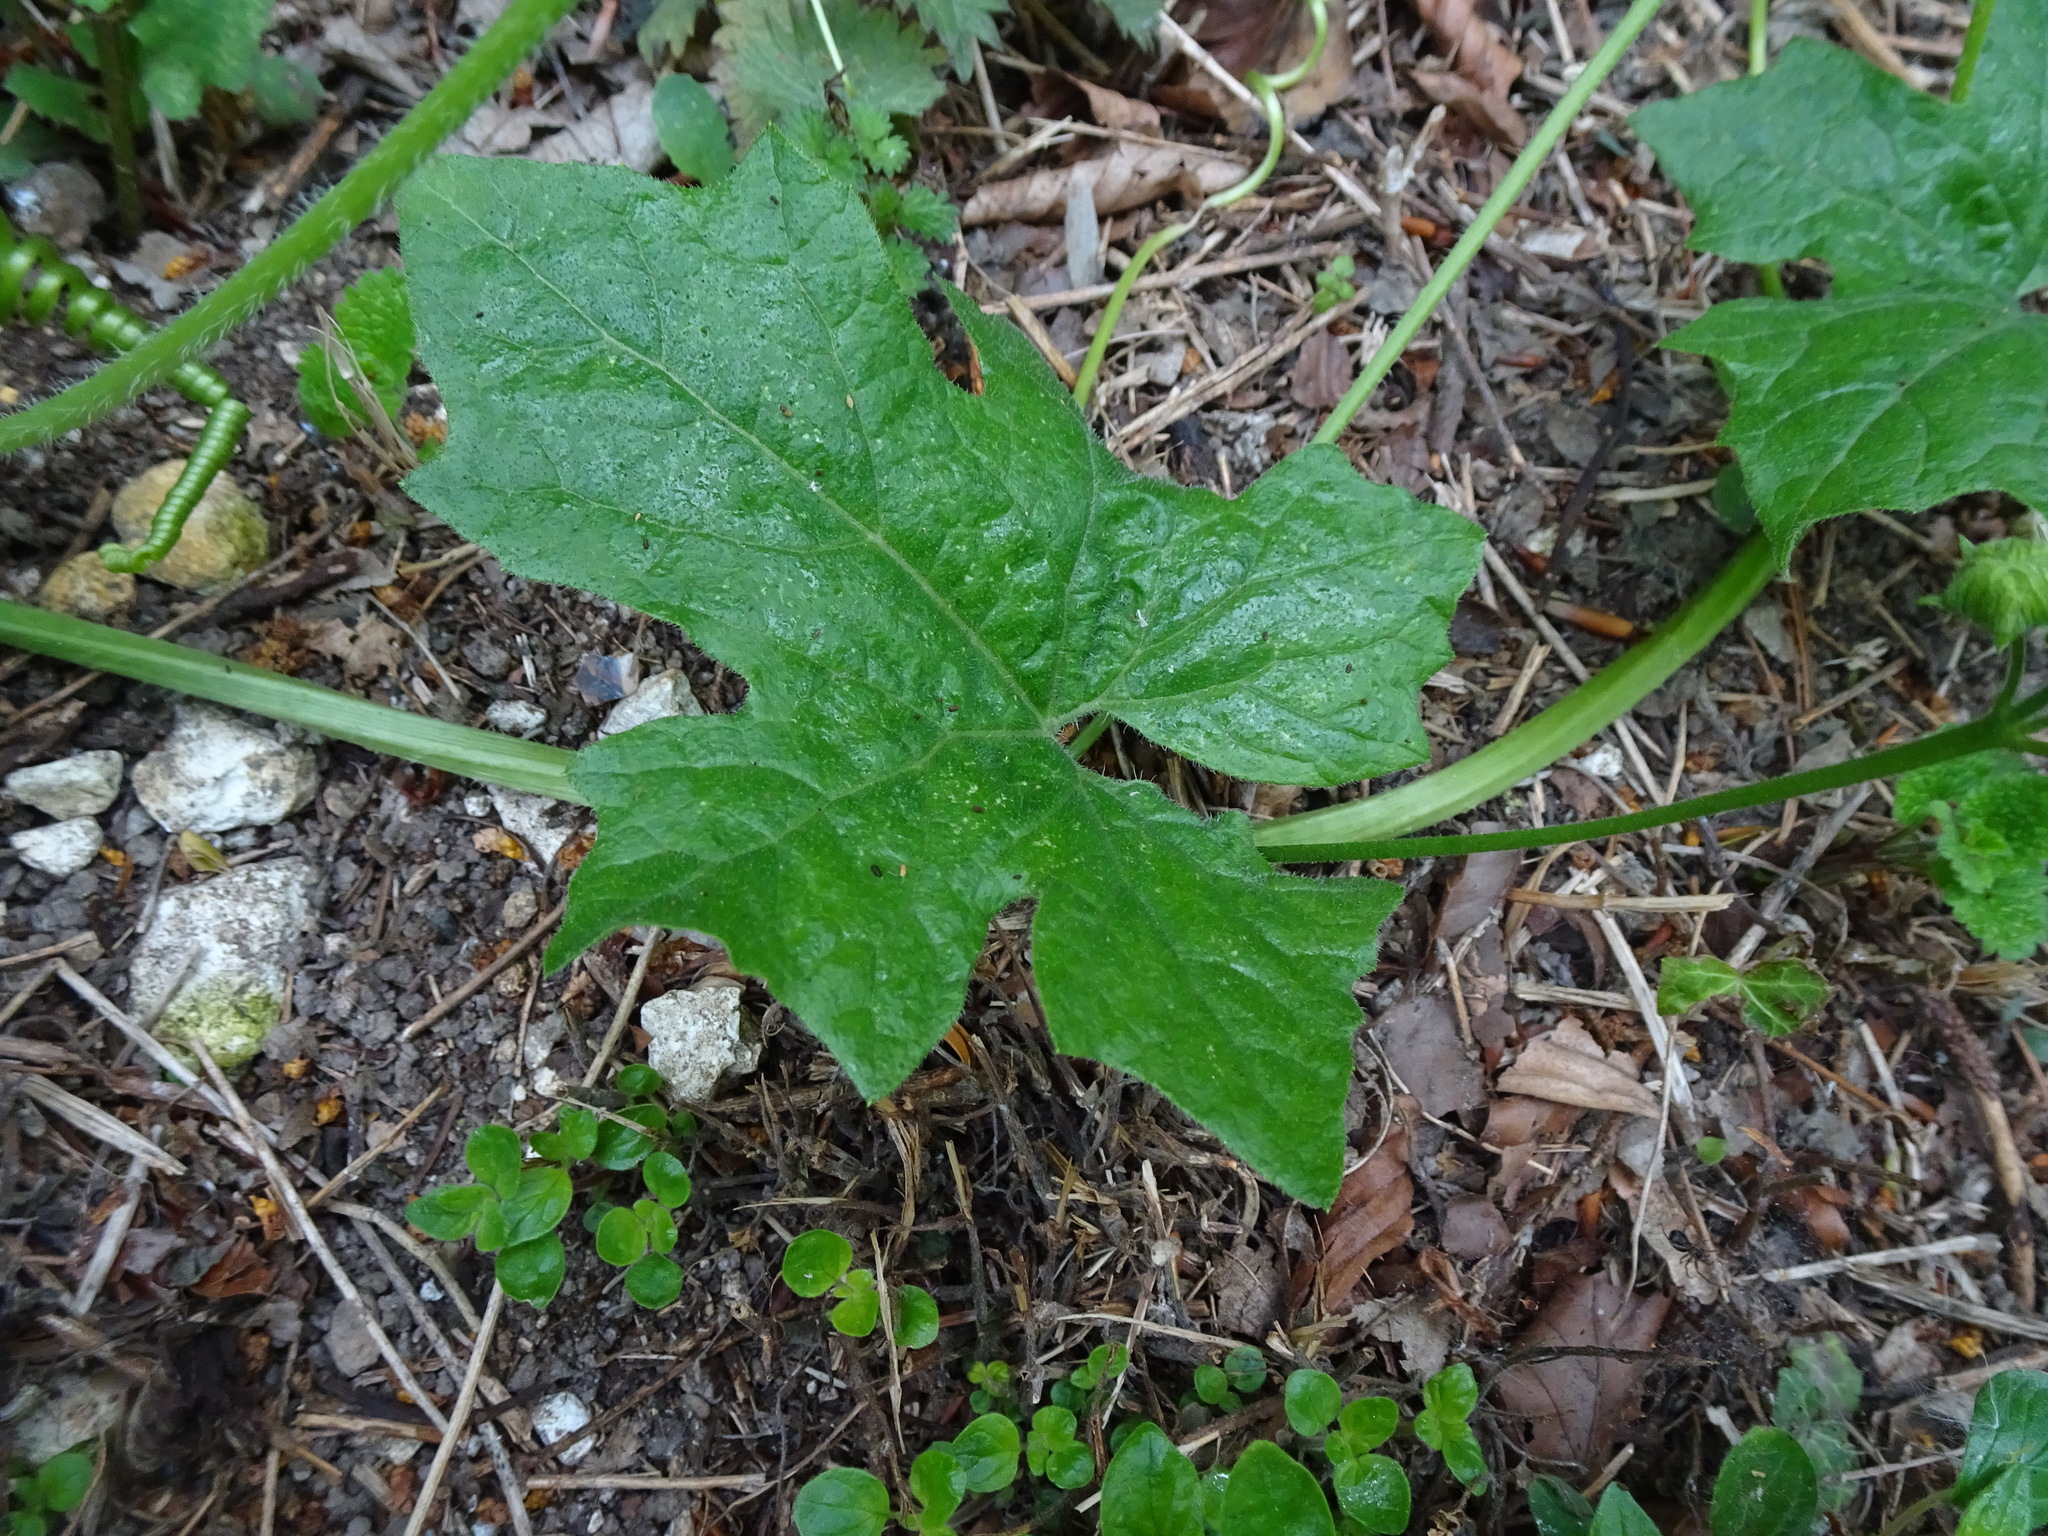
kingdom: Plantae
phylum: Tracheophyta
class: Magnoliopsida
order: Cucurbitales
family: Cucurbitaceae
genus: Bryonia
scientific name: Bryonia cretica
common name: Cretan bryony
